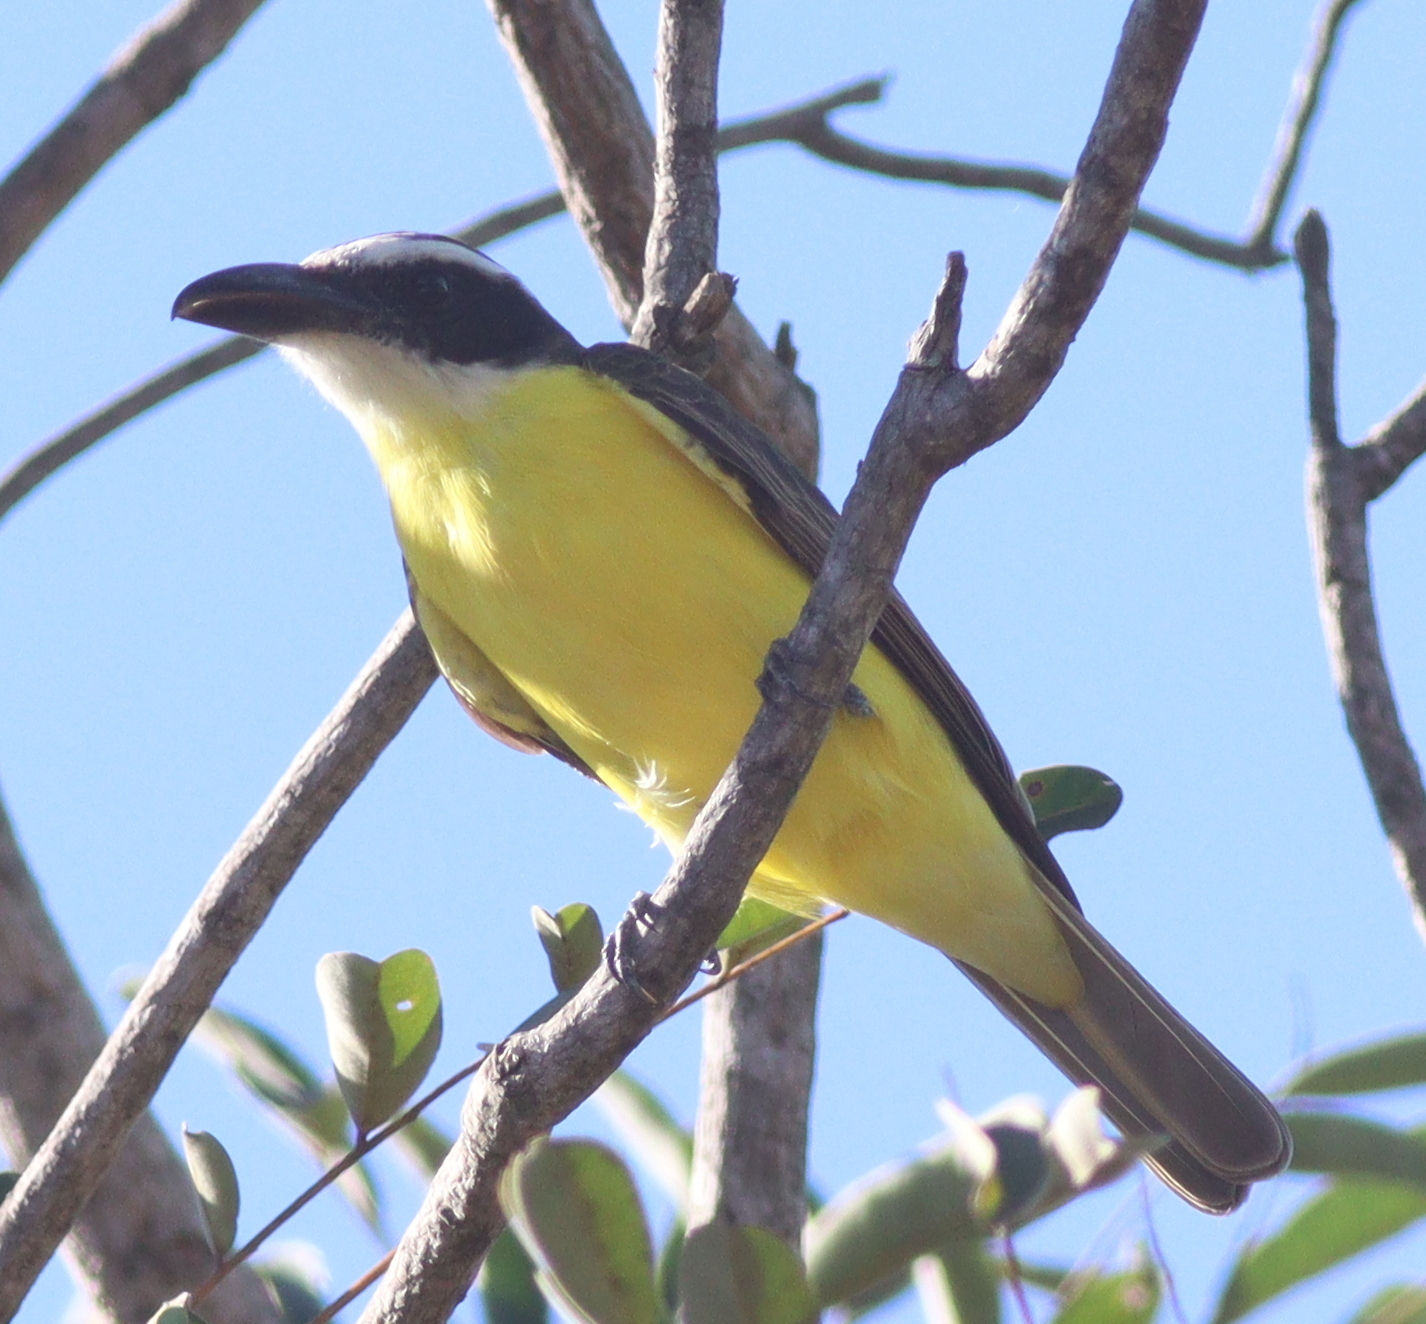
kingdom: Animalia
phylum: Chordata
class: Aves
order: Passeriformes
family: Tyrannidae
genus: Megarynchus
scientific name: Megarynchus pitangua
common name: Boat-billed flycatcher
